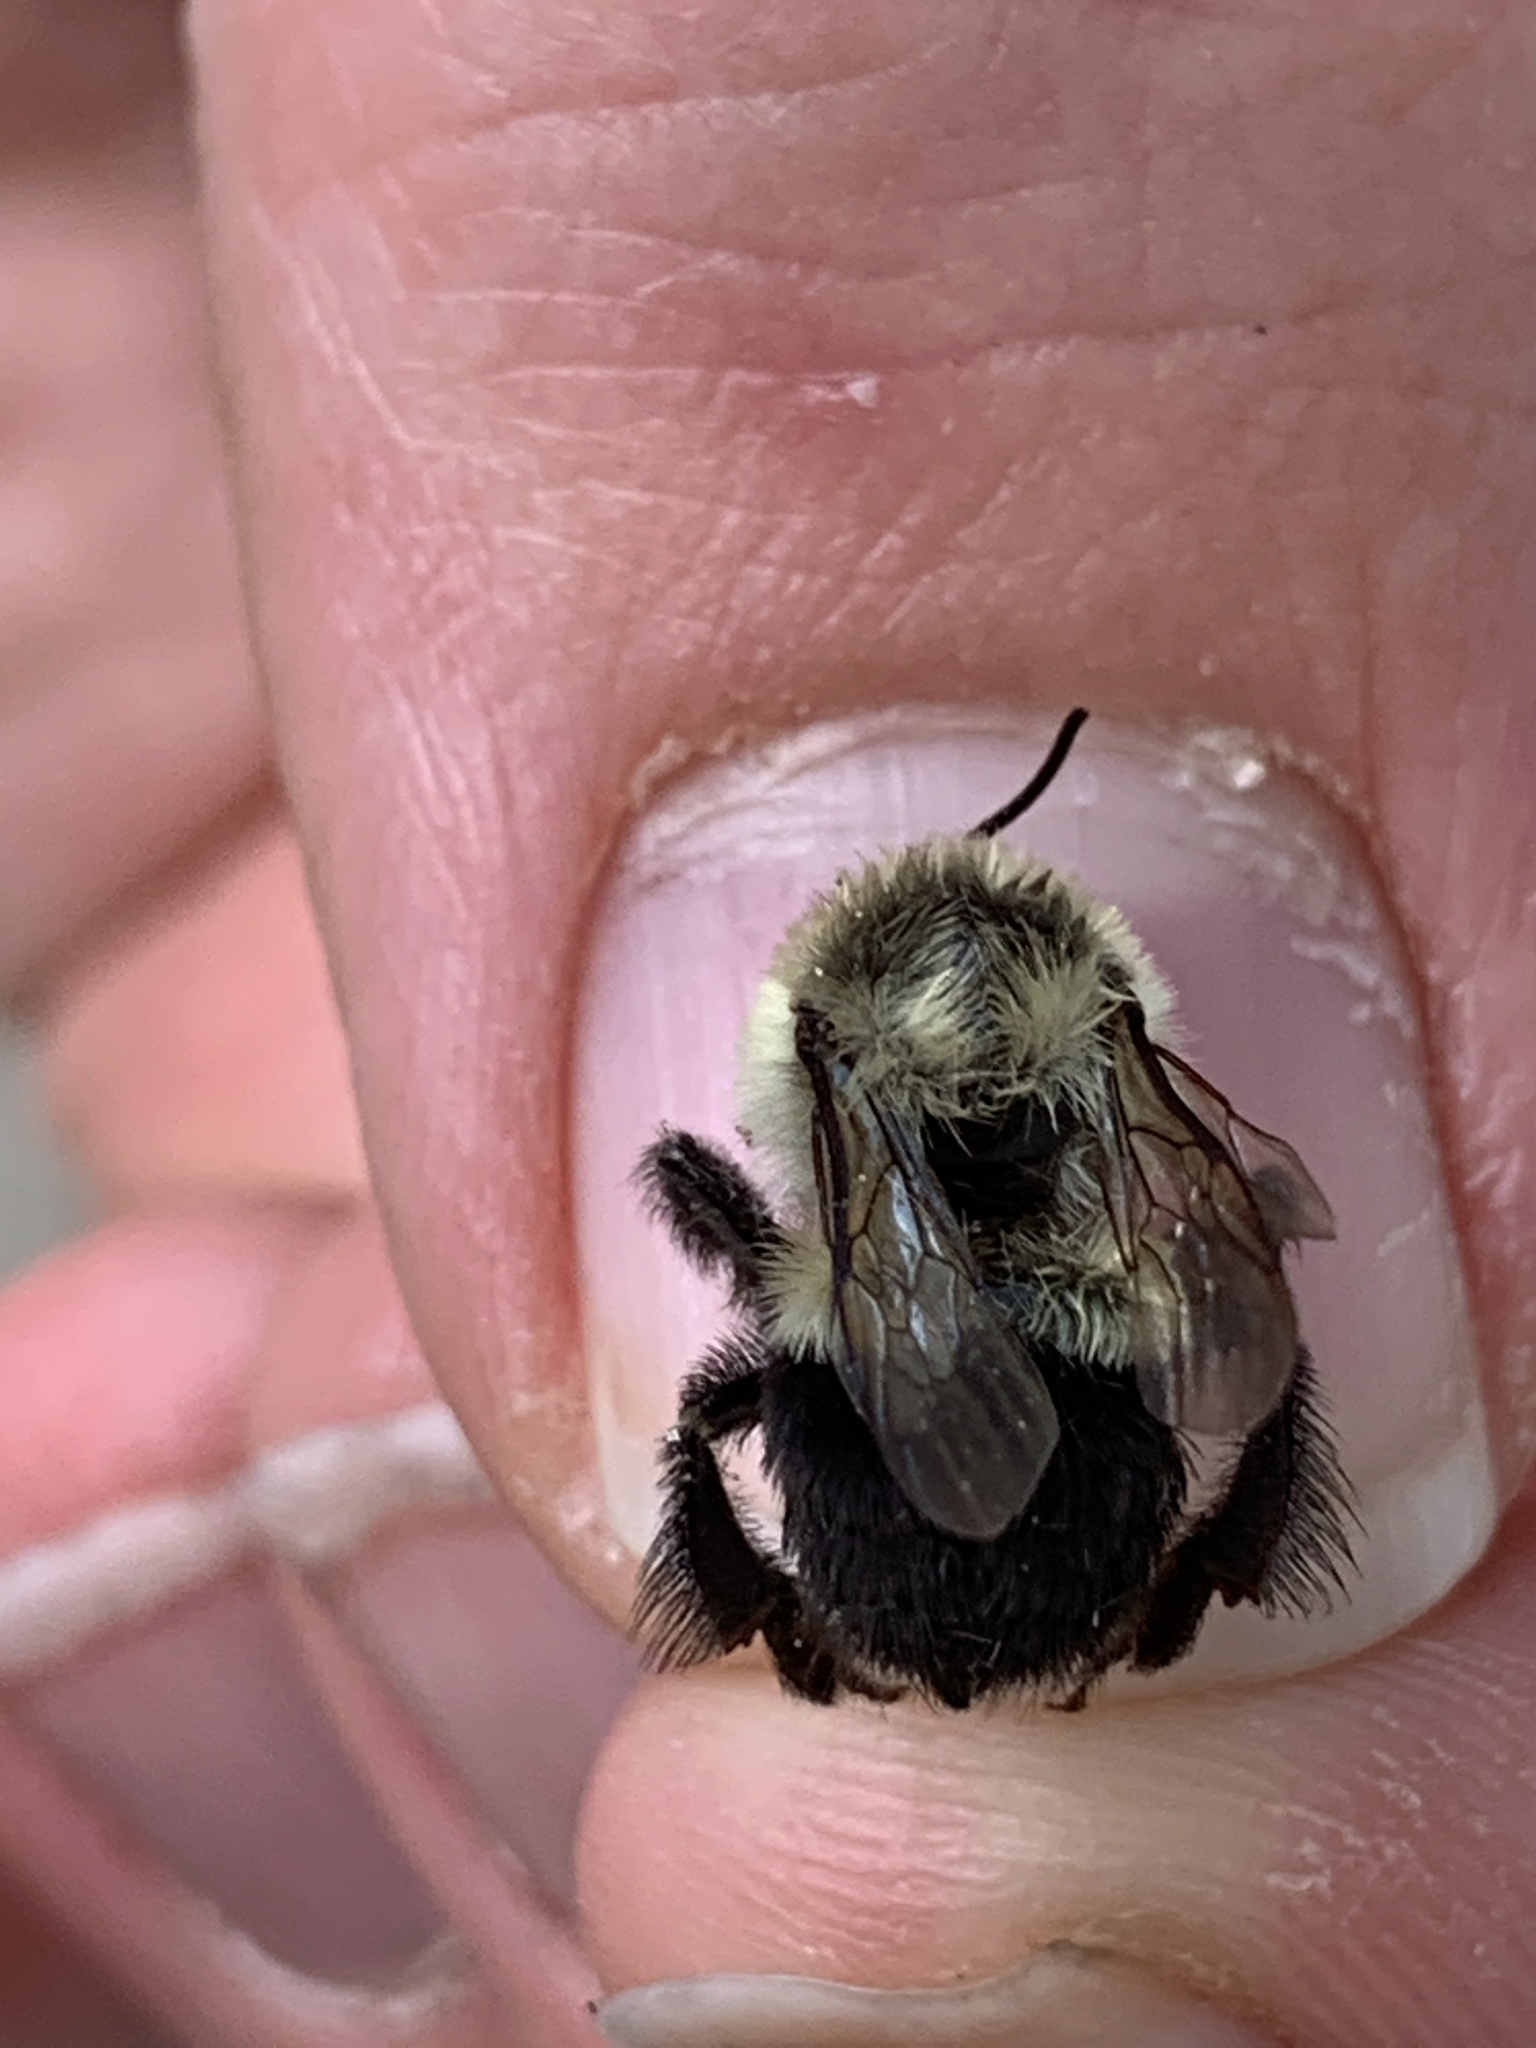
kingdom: Animalia
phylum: Arthropoda
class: Insecta
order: Hymenoptera
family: Apidae
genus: Bombus
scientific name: Bombus impatiens
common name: Common eastern bumble bee
